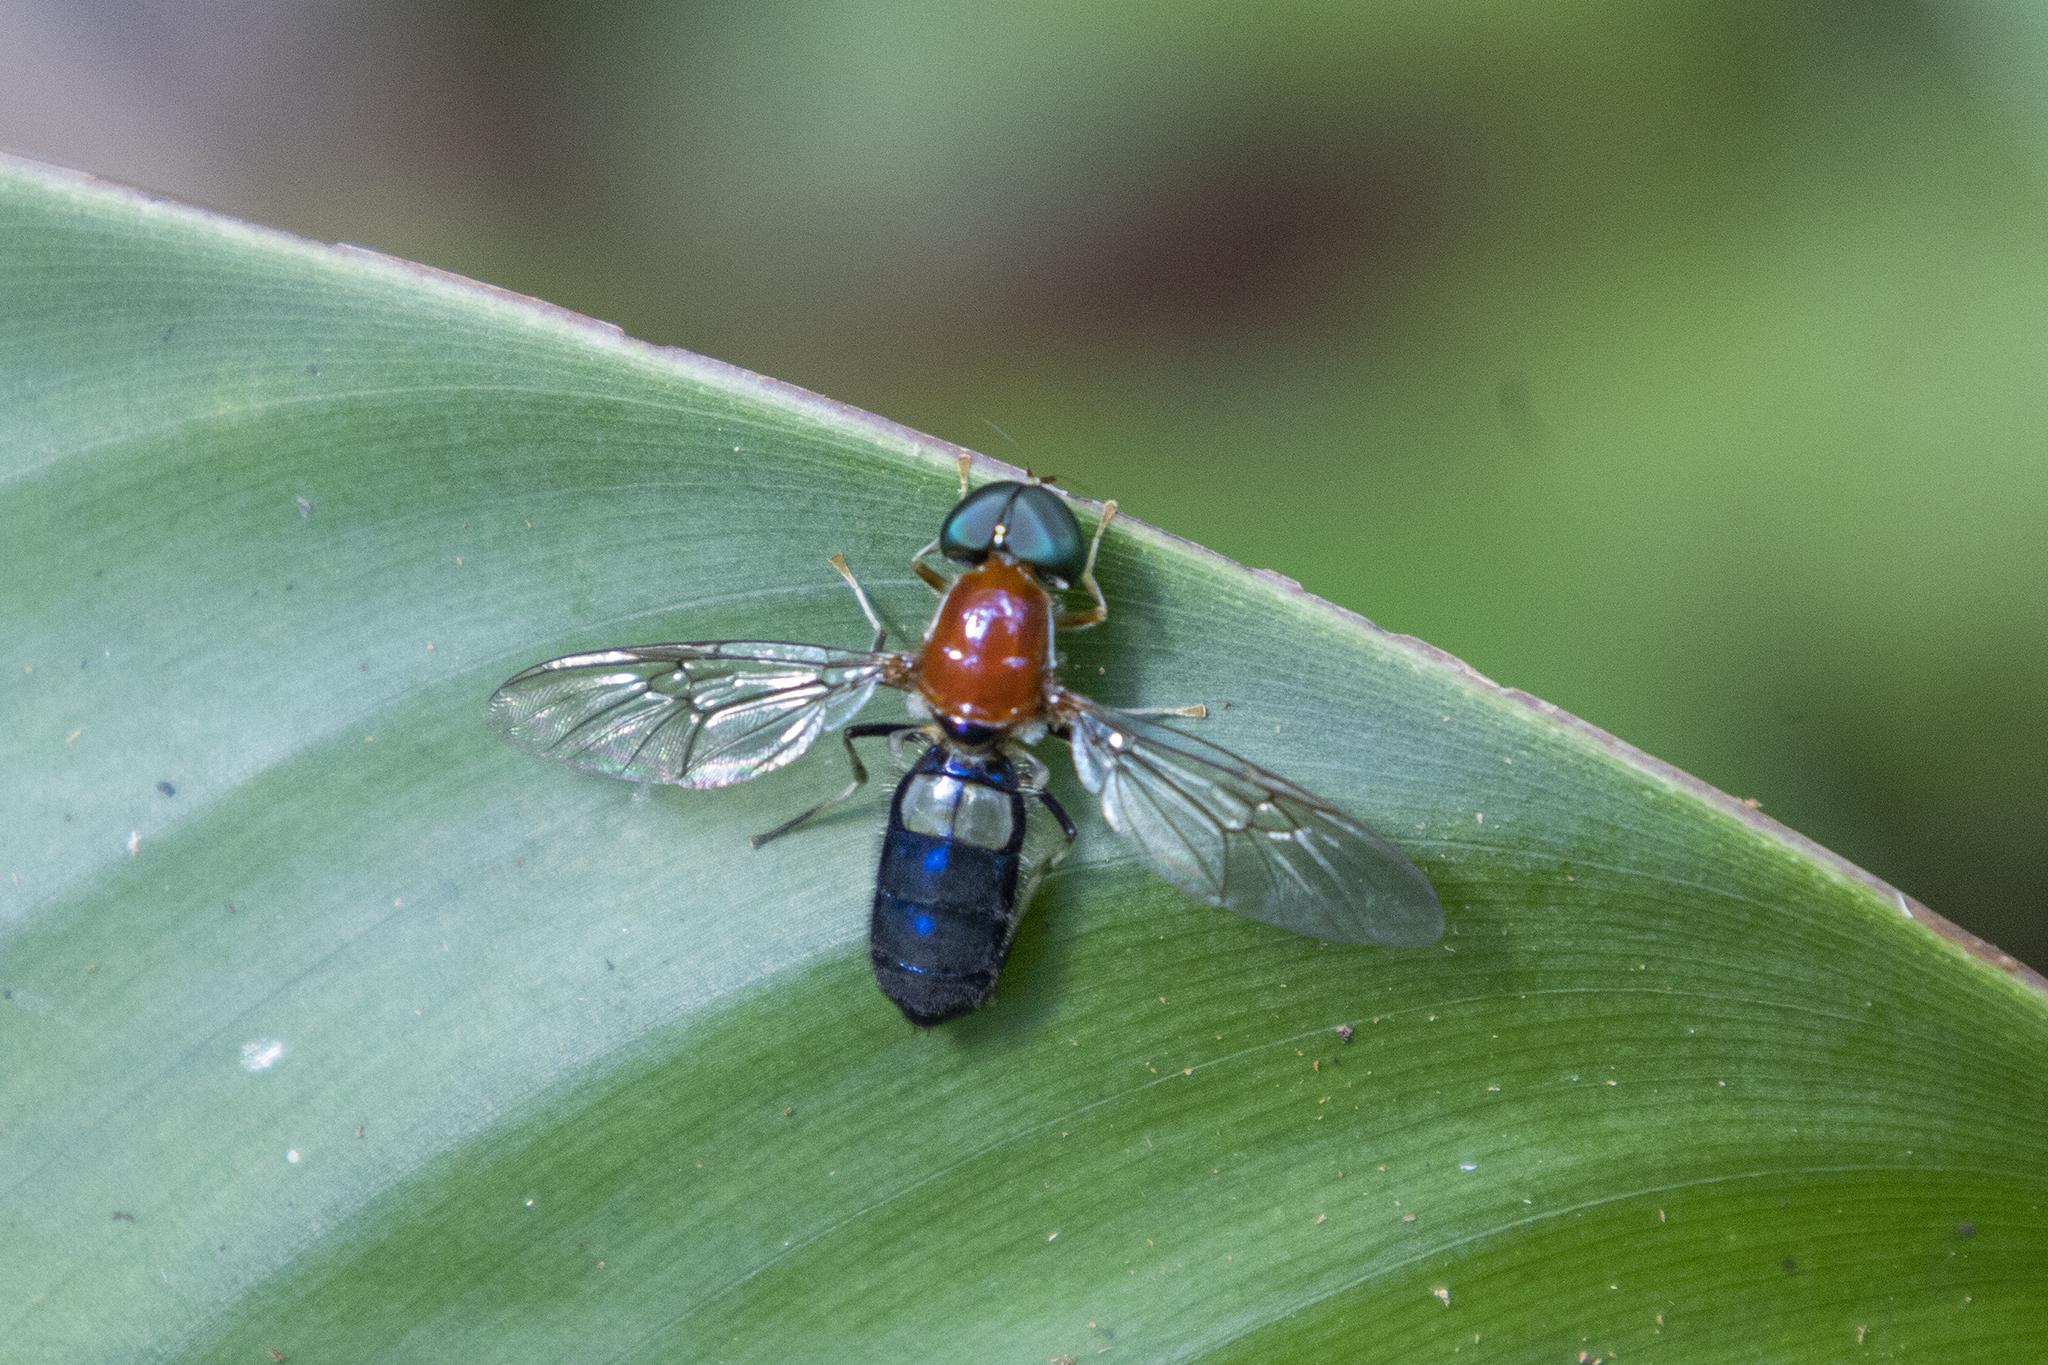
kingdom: Animalia
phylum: Arthropoda
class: Insecta
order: Diptera
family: Stratiomyidae
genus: Sargus
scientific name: Sargus thoracicus
